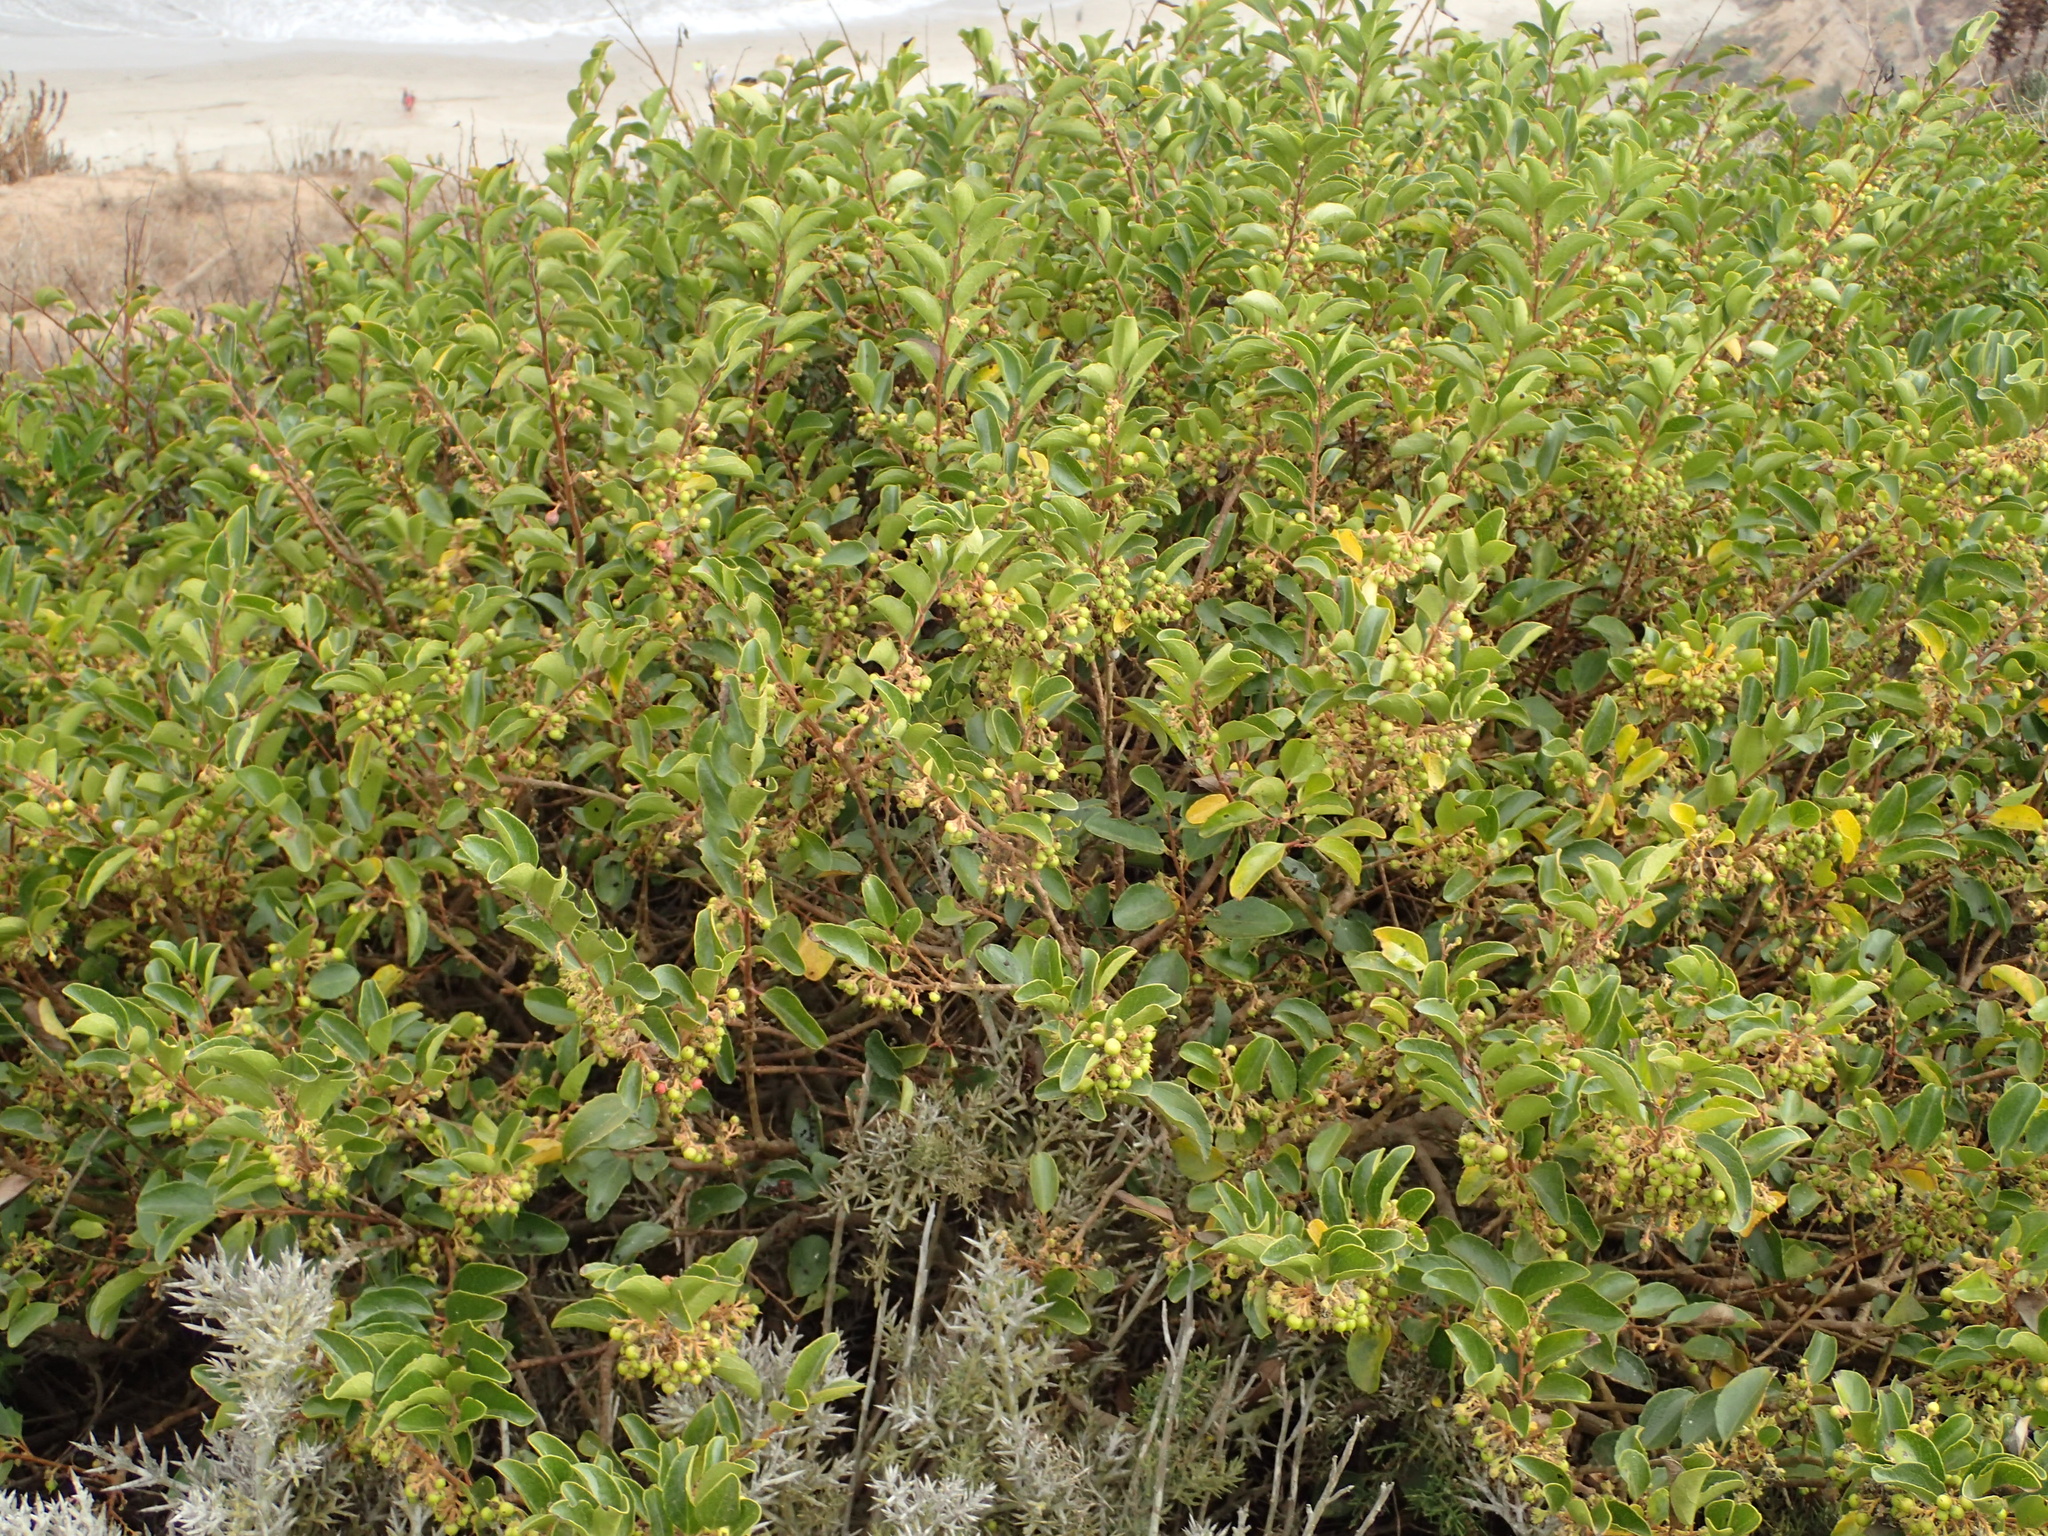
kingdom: Plantae
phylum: Tracheophyta
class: Magnoliopsida
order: Malpighiales
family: Salicaceae
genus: Azara
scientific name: Azara celastrina
